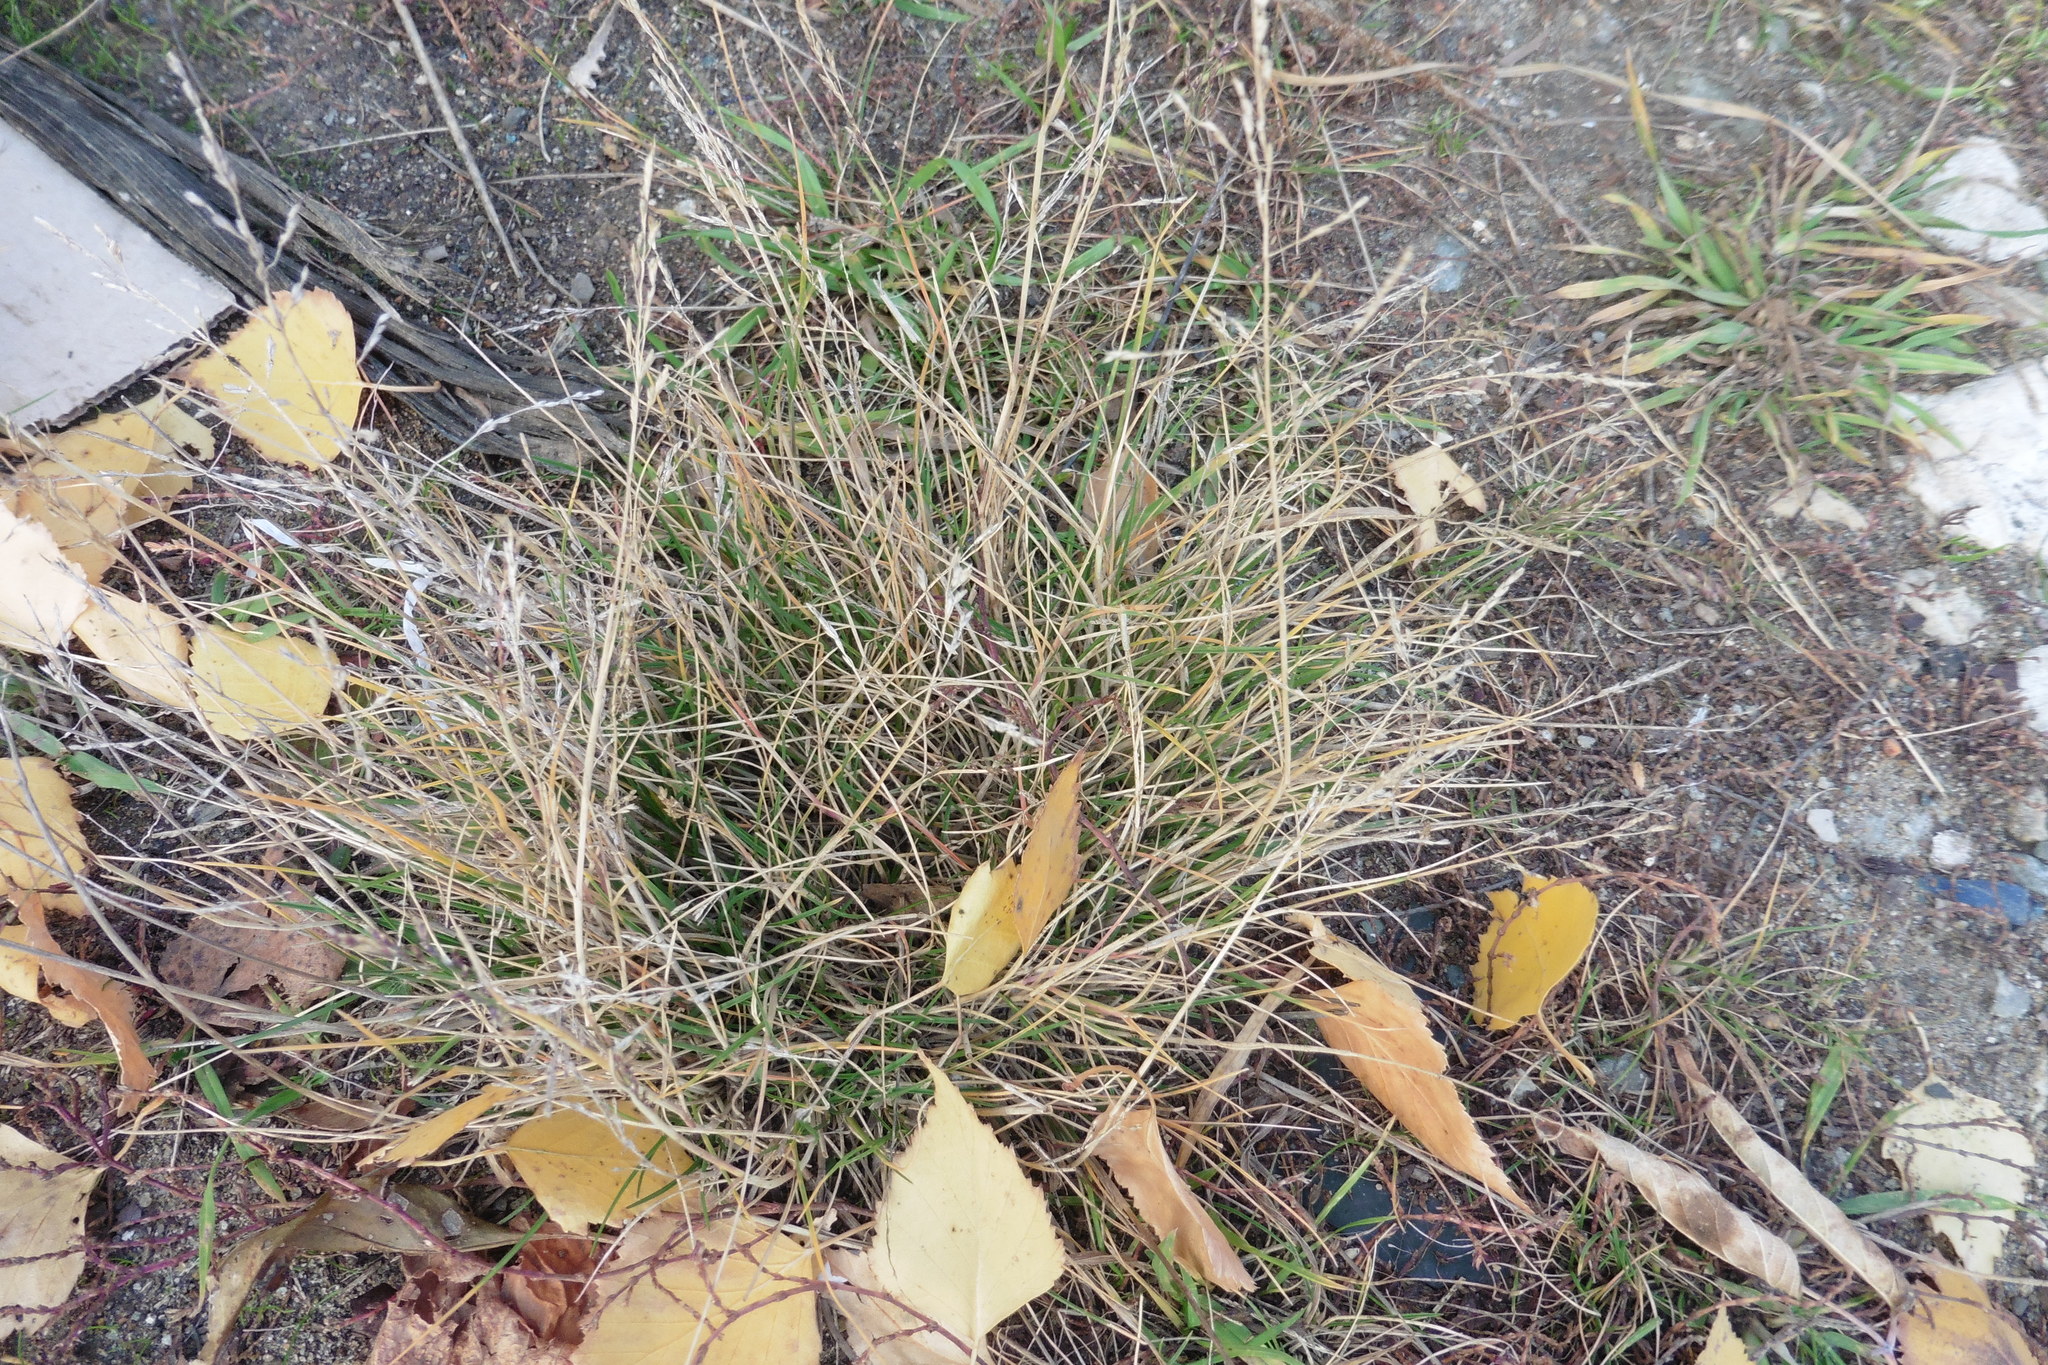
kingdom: Plantae
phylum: Tracheophyta
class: Liliopsida
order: Poales
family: Poaceae
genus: Puccinellia
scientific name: Puccinellia distans
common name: Weeping alkaligrass
